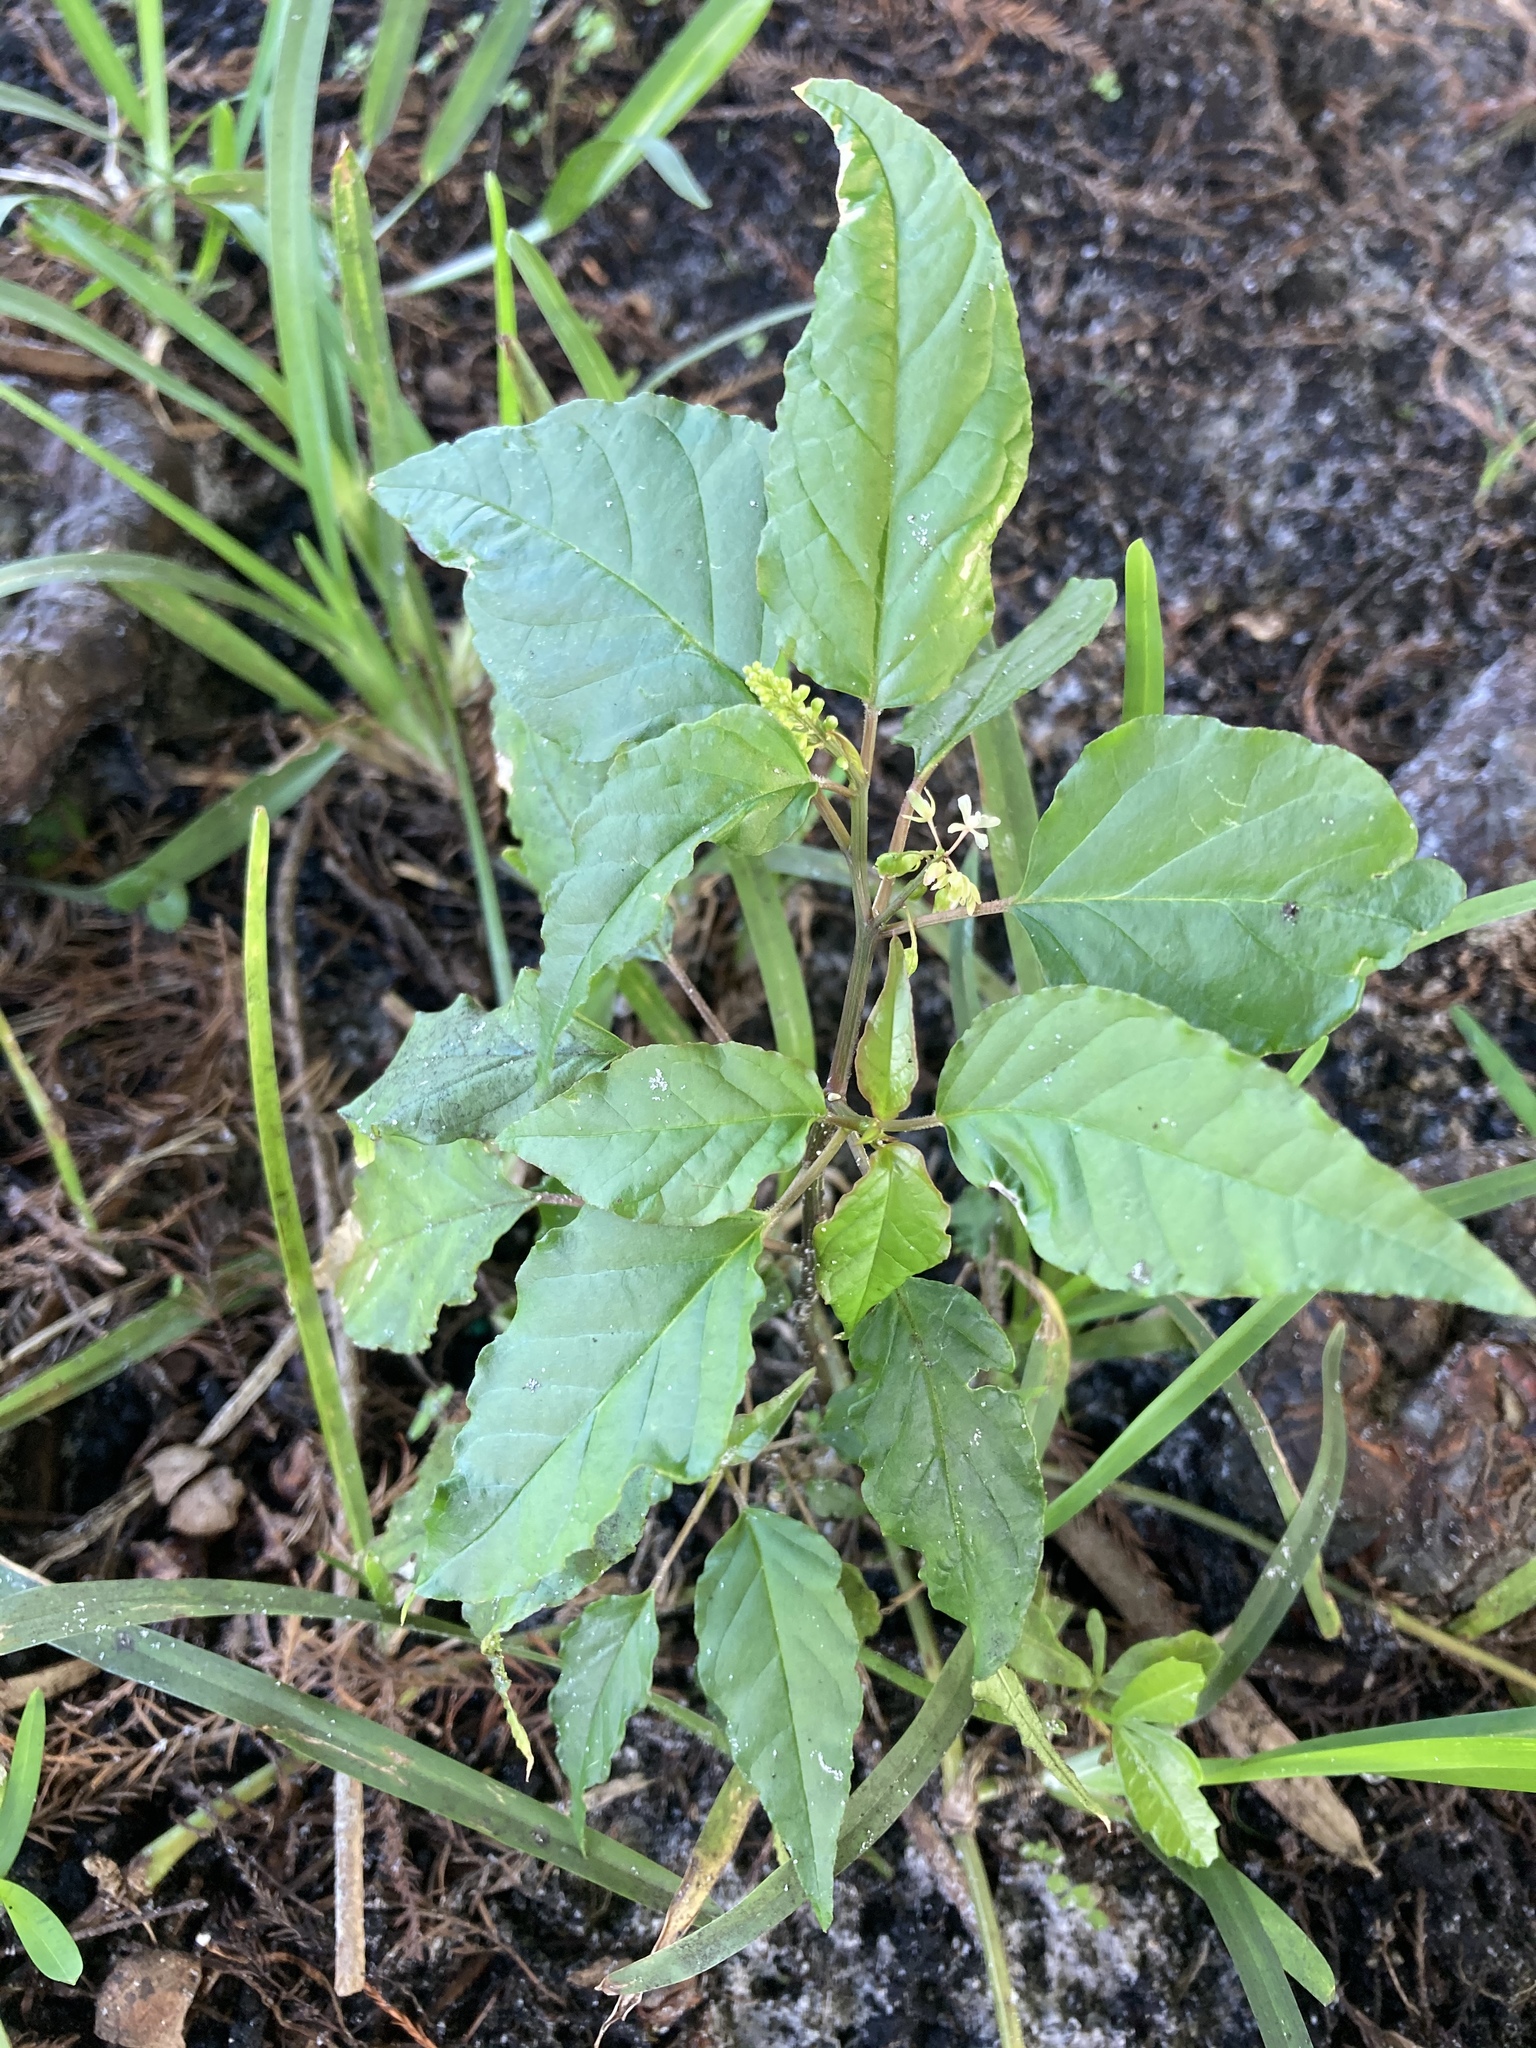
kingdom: Plantae
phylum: Tracheophyta
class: Magnoliopsida
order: Caryophyllales
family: Phytolaccaceae
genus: Rivina
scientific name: Rivina humilis
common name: Rougeplant
